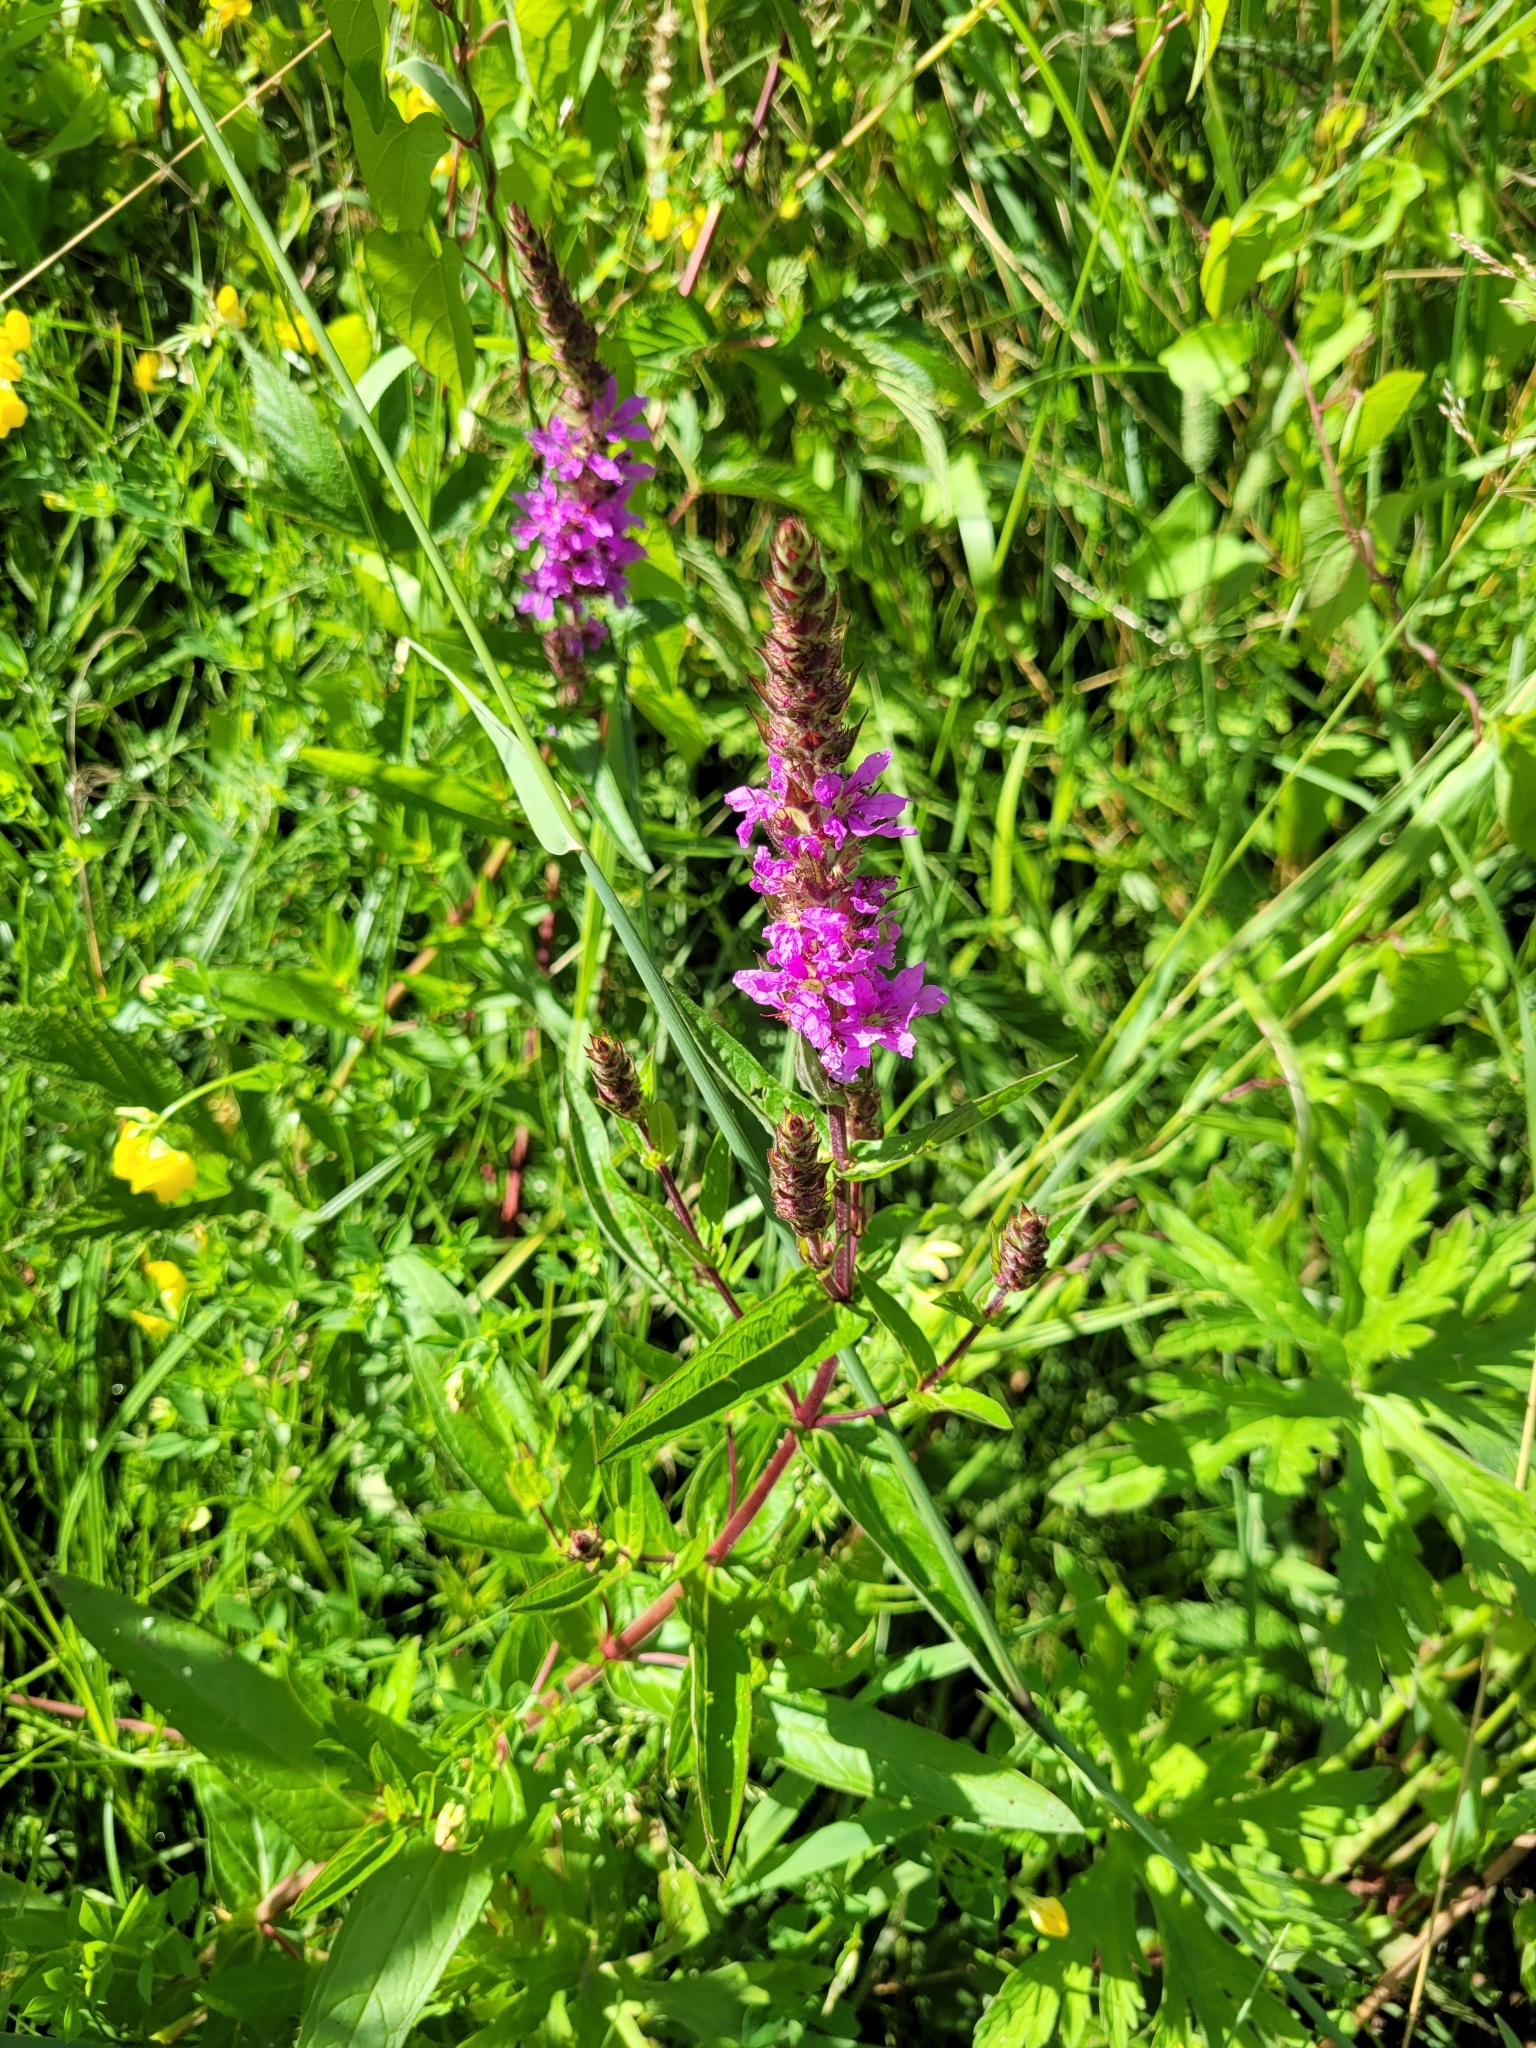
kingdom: Plantae
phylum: Tracheophyta
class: Magnoliopsida
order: Myrtales
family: Lythraceae
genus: Lythrum
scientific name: Lythrum salicaria
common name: Purple loosestrife
